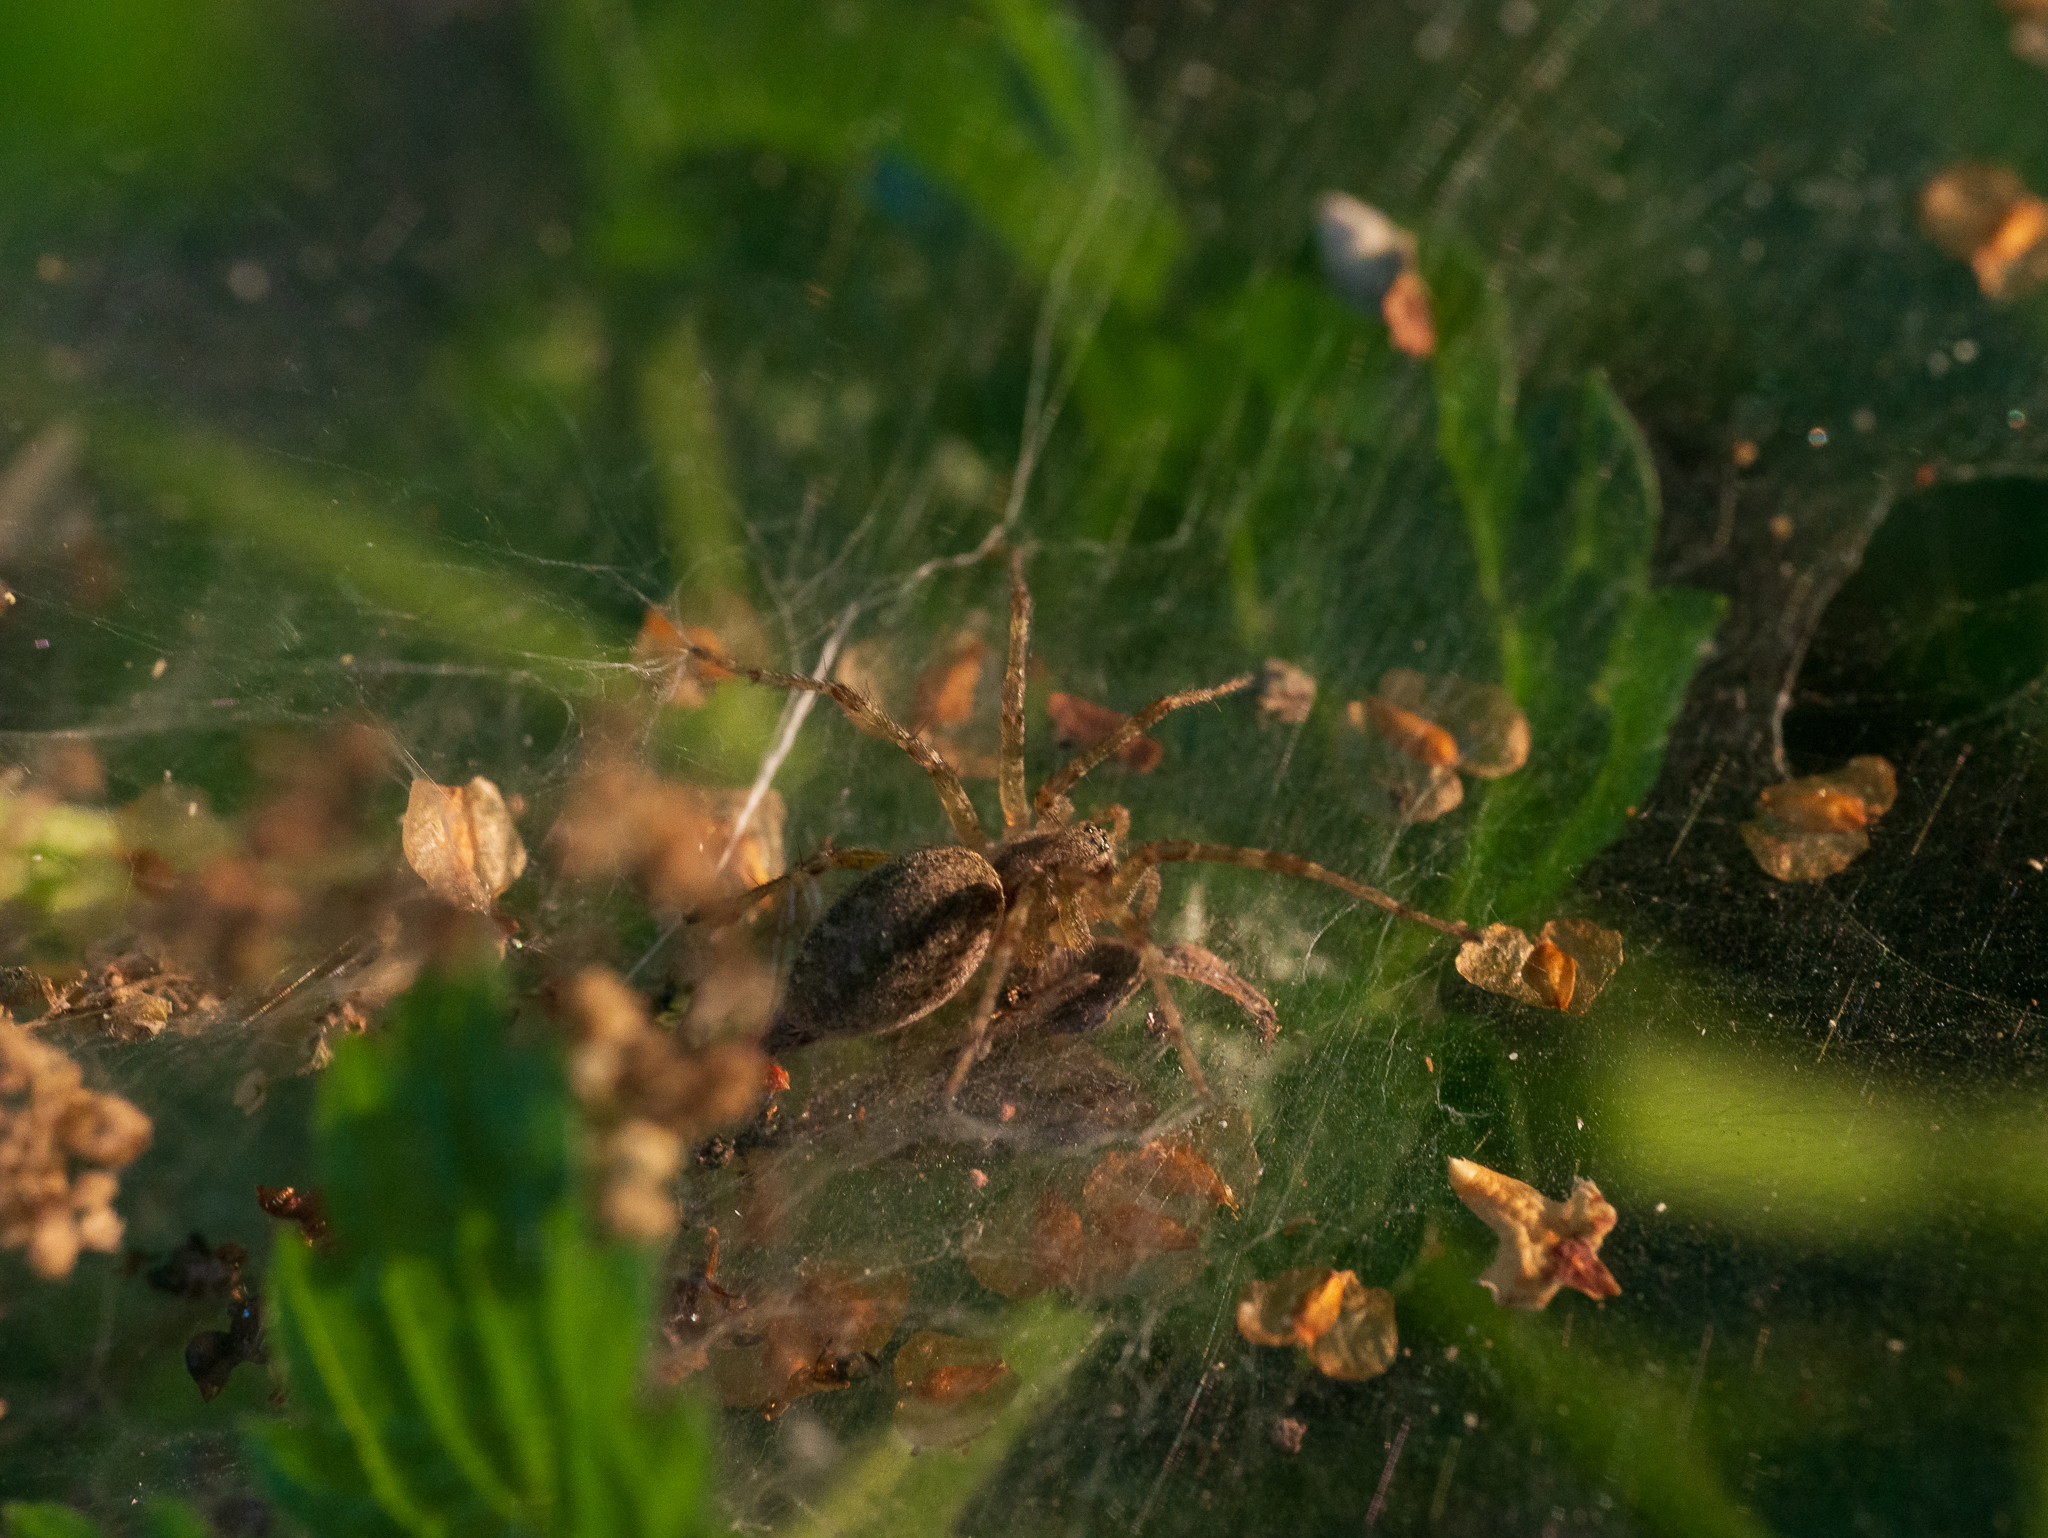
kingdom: Animalia
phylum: Arthropoda
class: Arachnida
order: Araneae
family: Agelenidae
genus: Allagelena
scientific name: Allagelena gracilens
